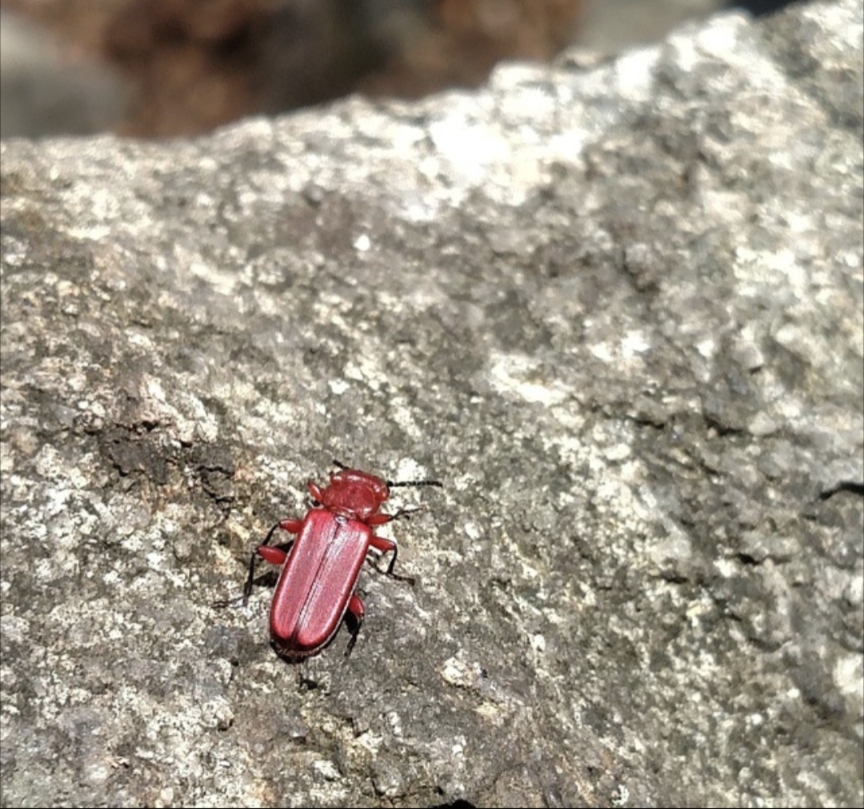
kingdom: Animalia
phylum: Arthropoda
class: Insecta
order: Coleoptera
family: Cucujidae
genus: Cucujus
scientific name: Cucujus clavipes
